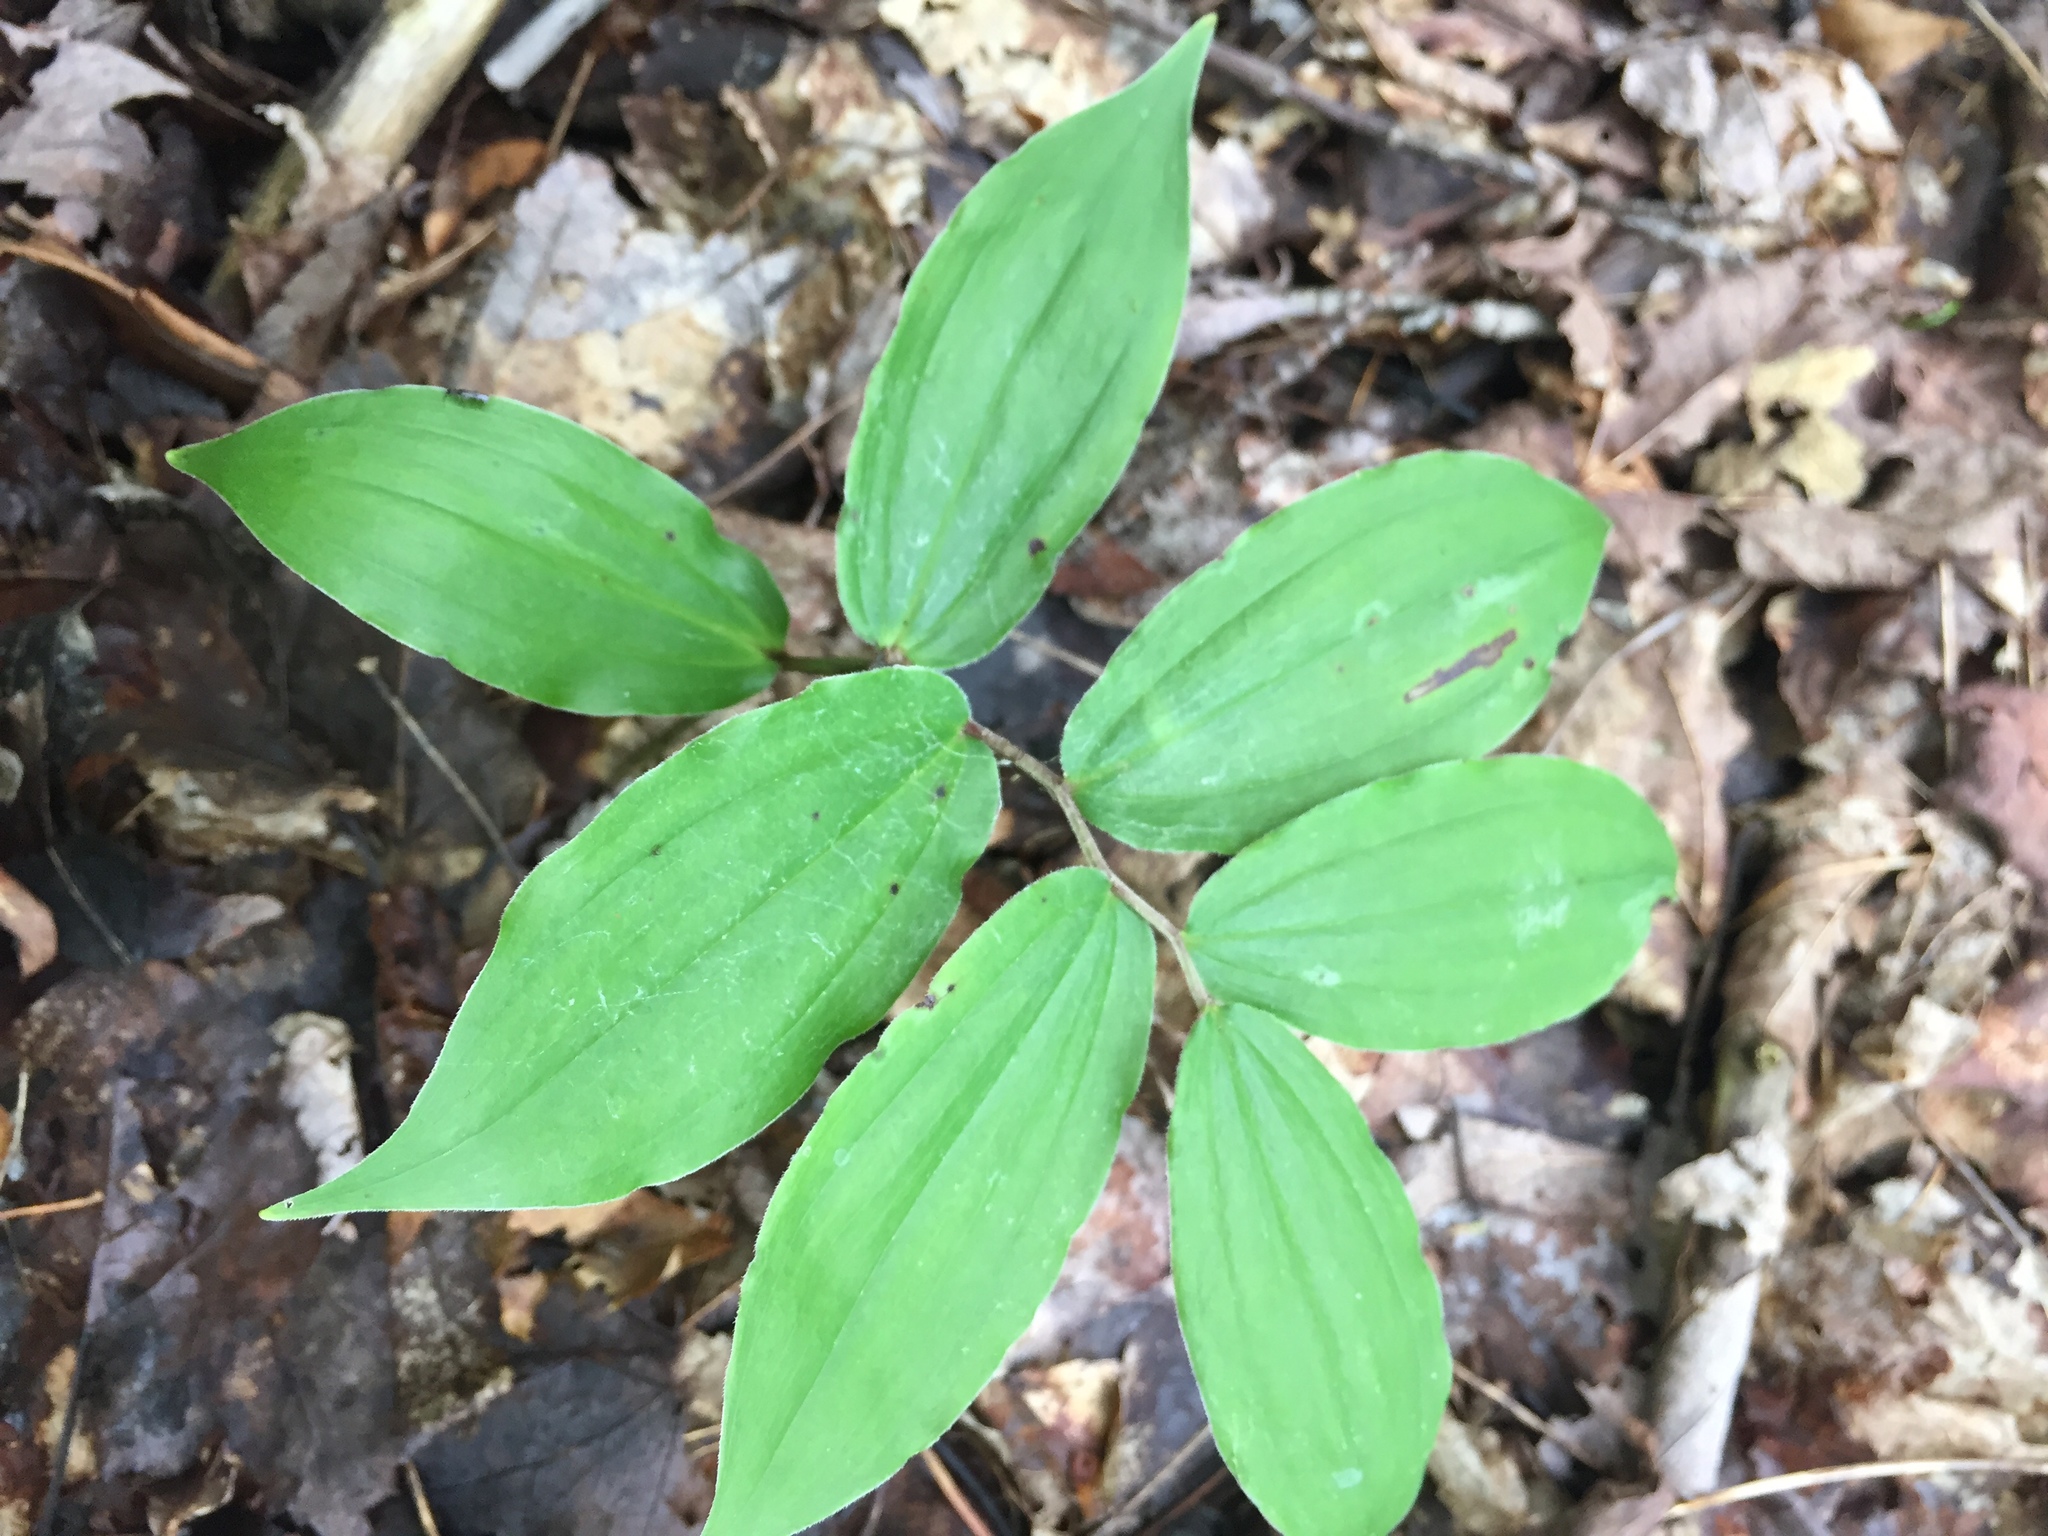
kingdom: Plantae
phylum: Tracheophyta
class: Liliopsida
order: Asparagales
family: Asparagaceae
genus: Maianthemum
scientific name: Maianthemum racemosum
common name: False spikenard
